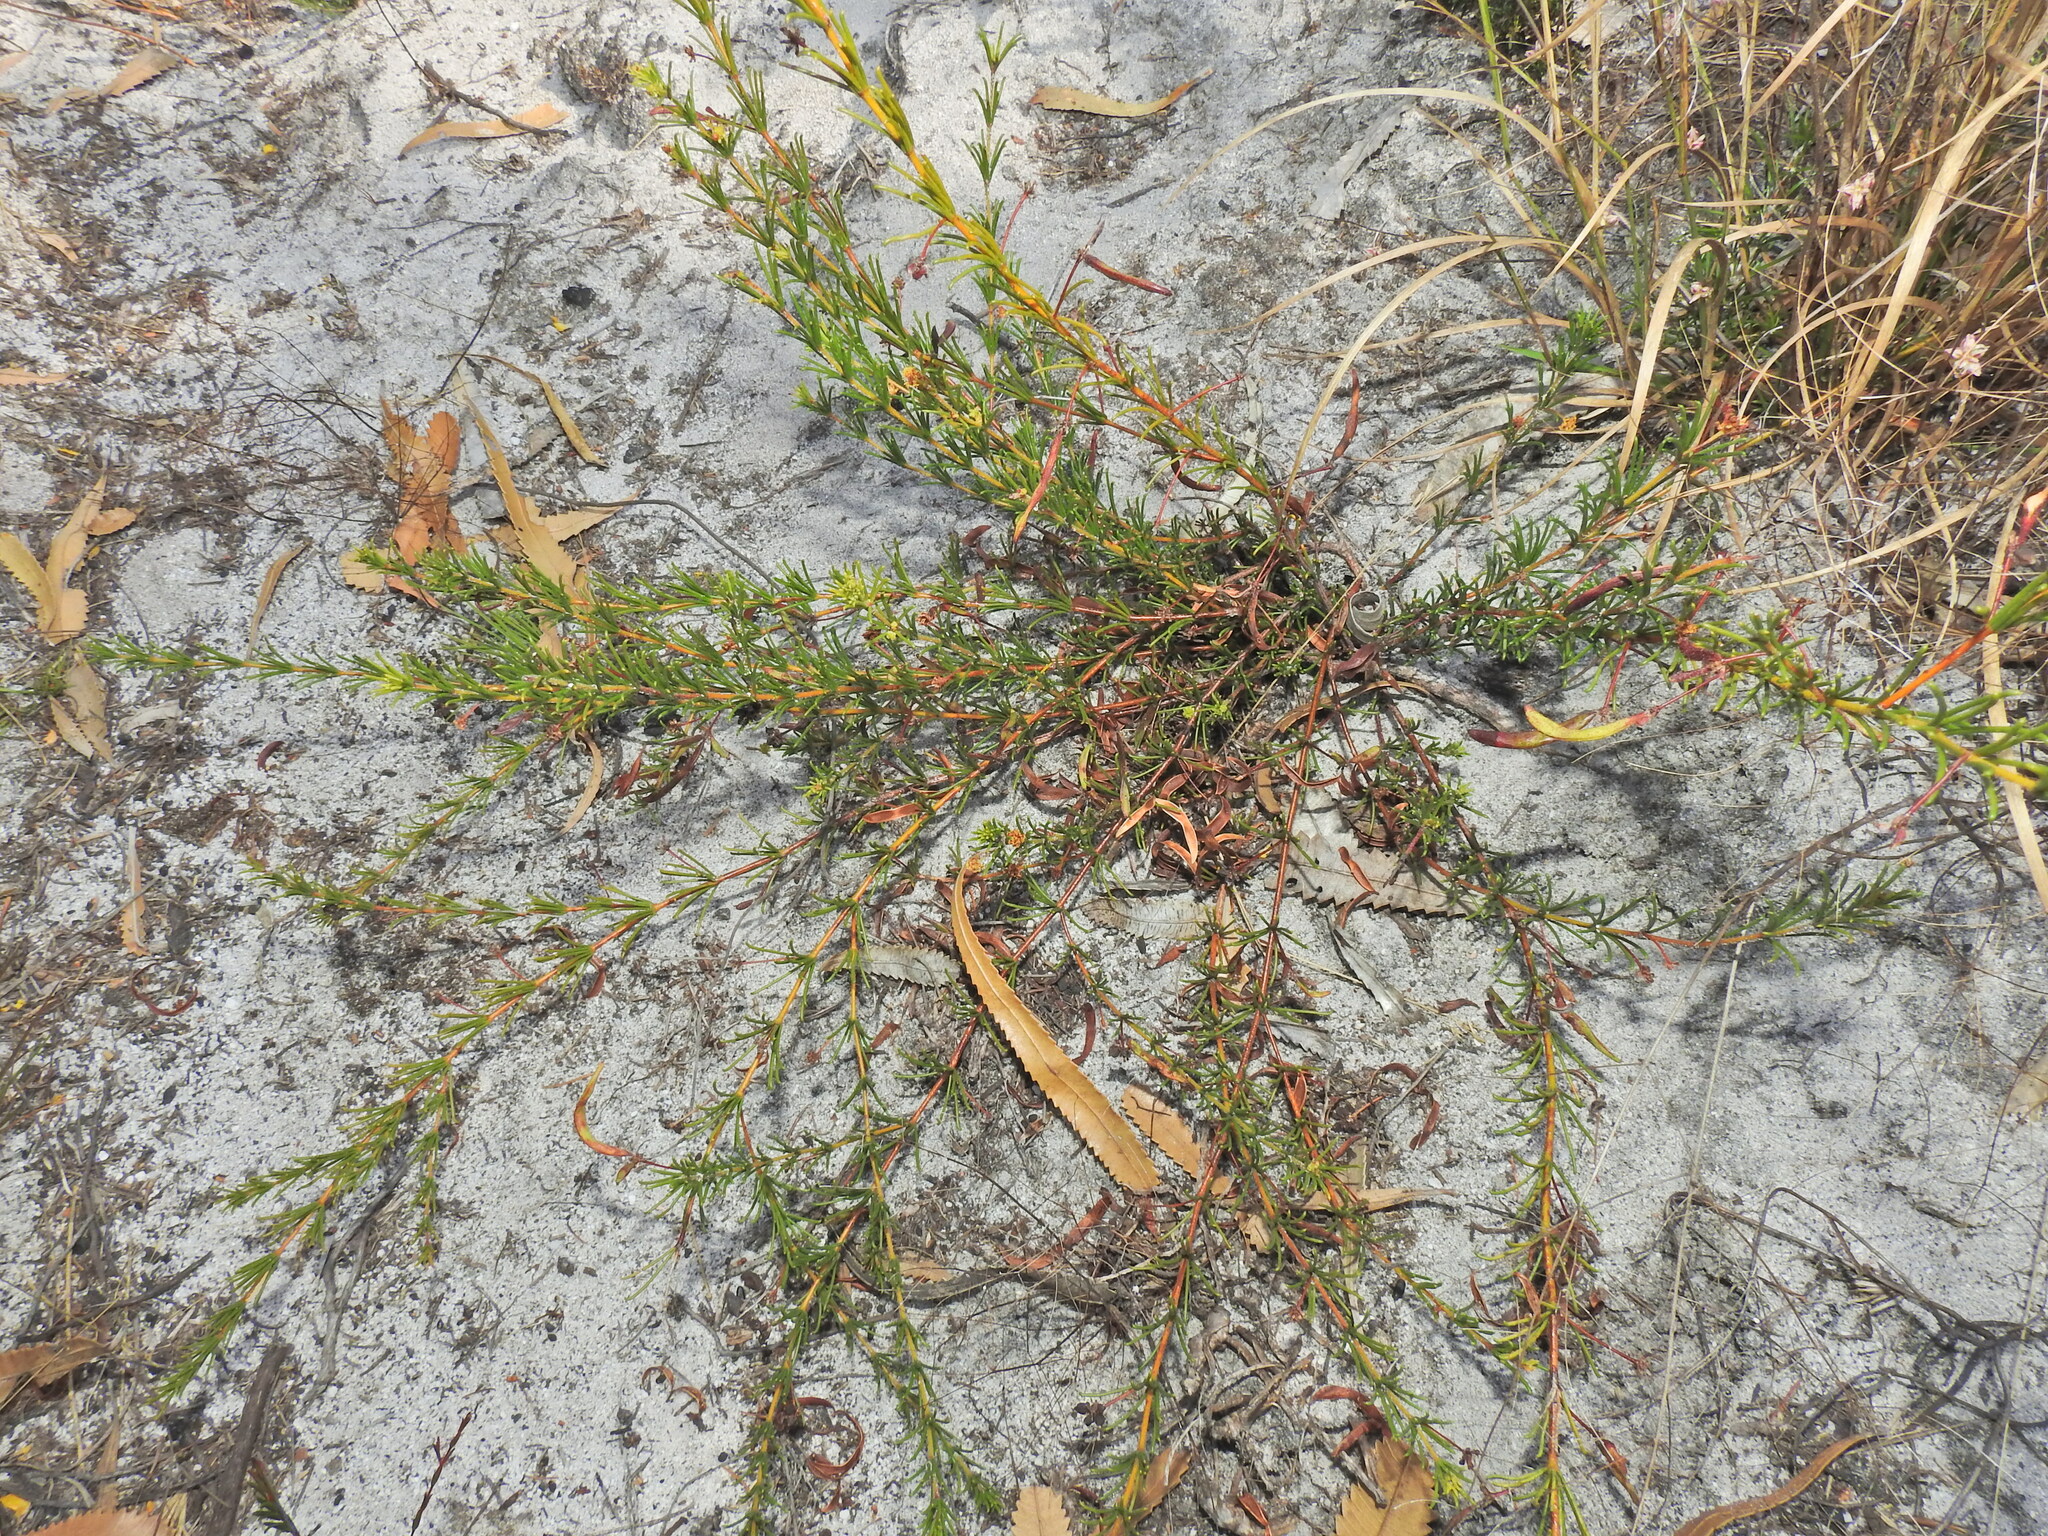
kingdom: Plantae
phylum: Tracheophyta
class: Magnoliopsida
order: Fabales
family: Fabaceae
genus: Acacia
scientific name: Acacia baueri
